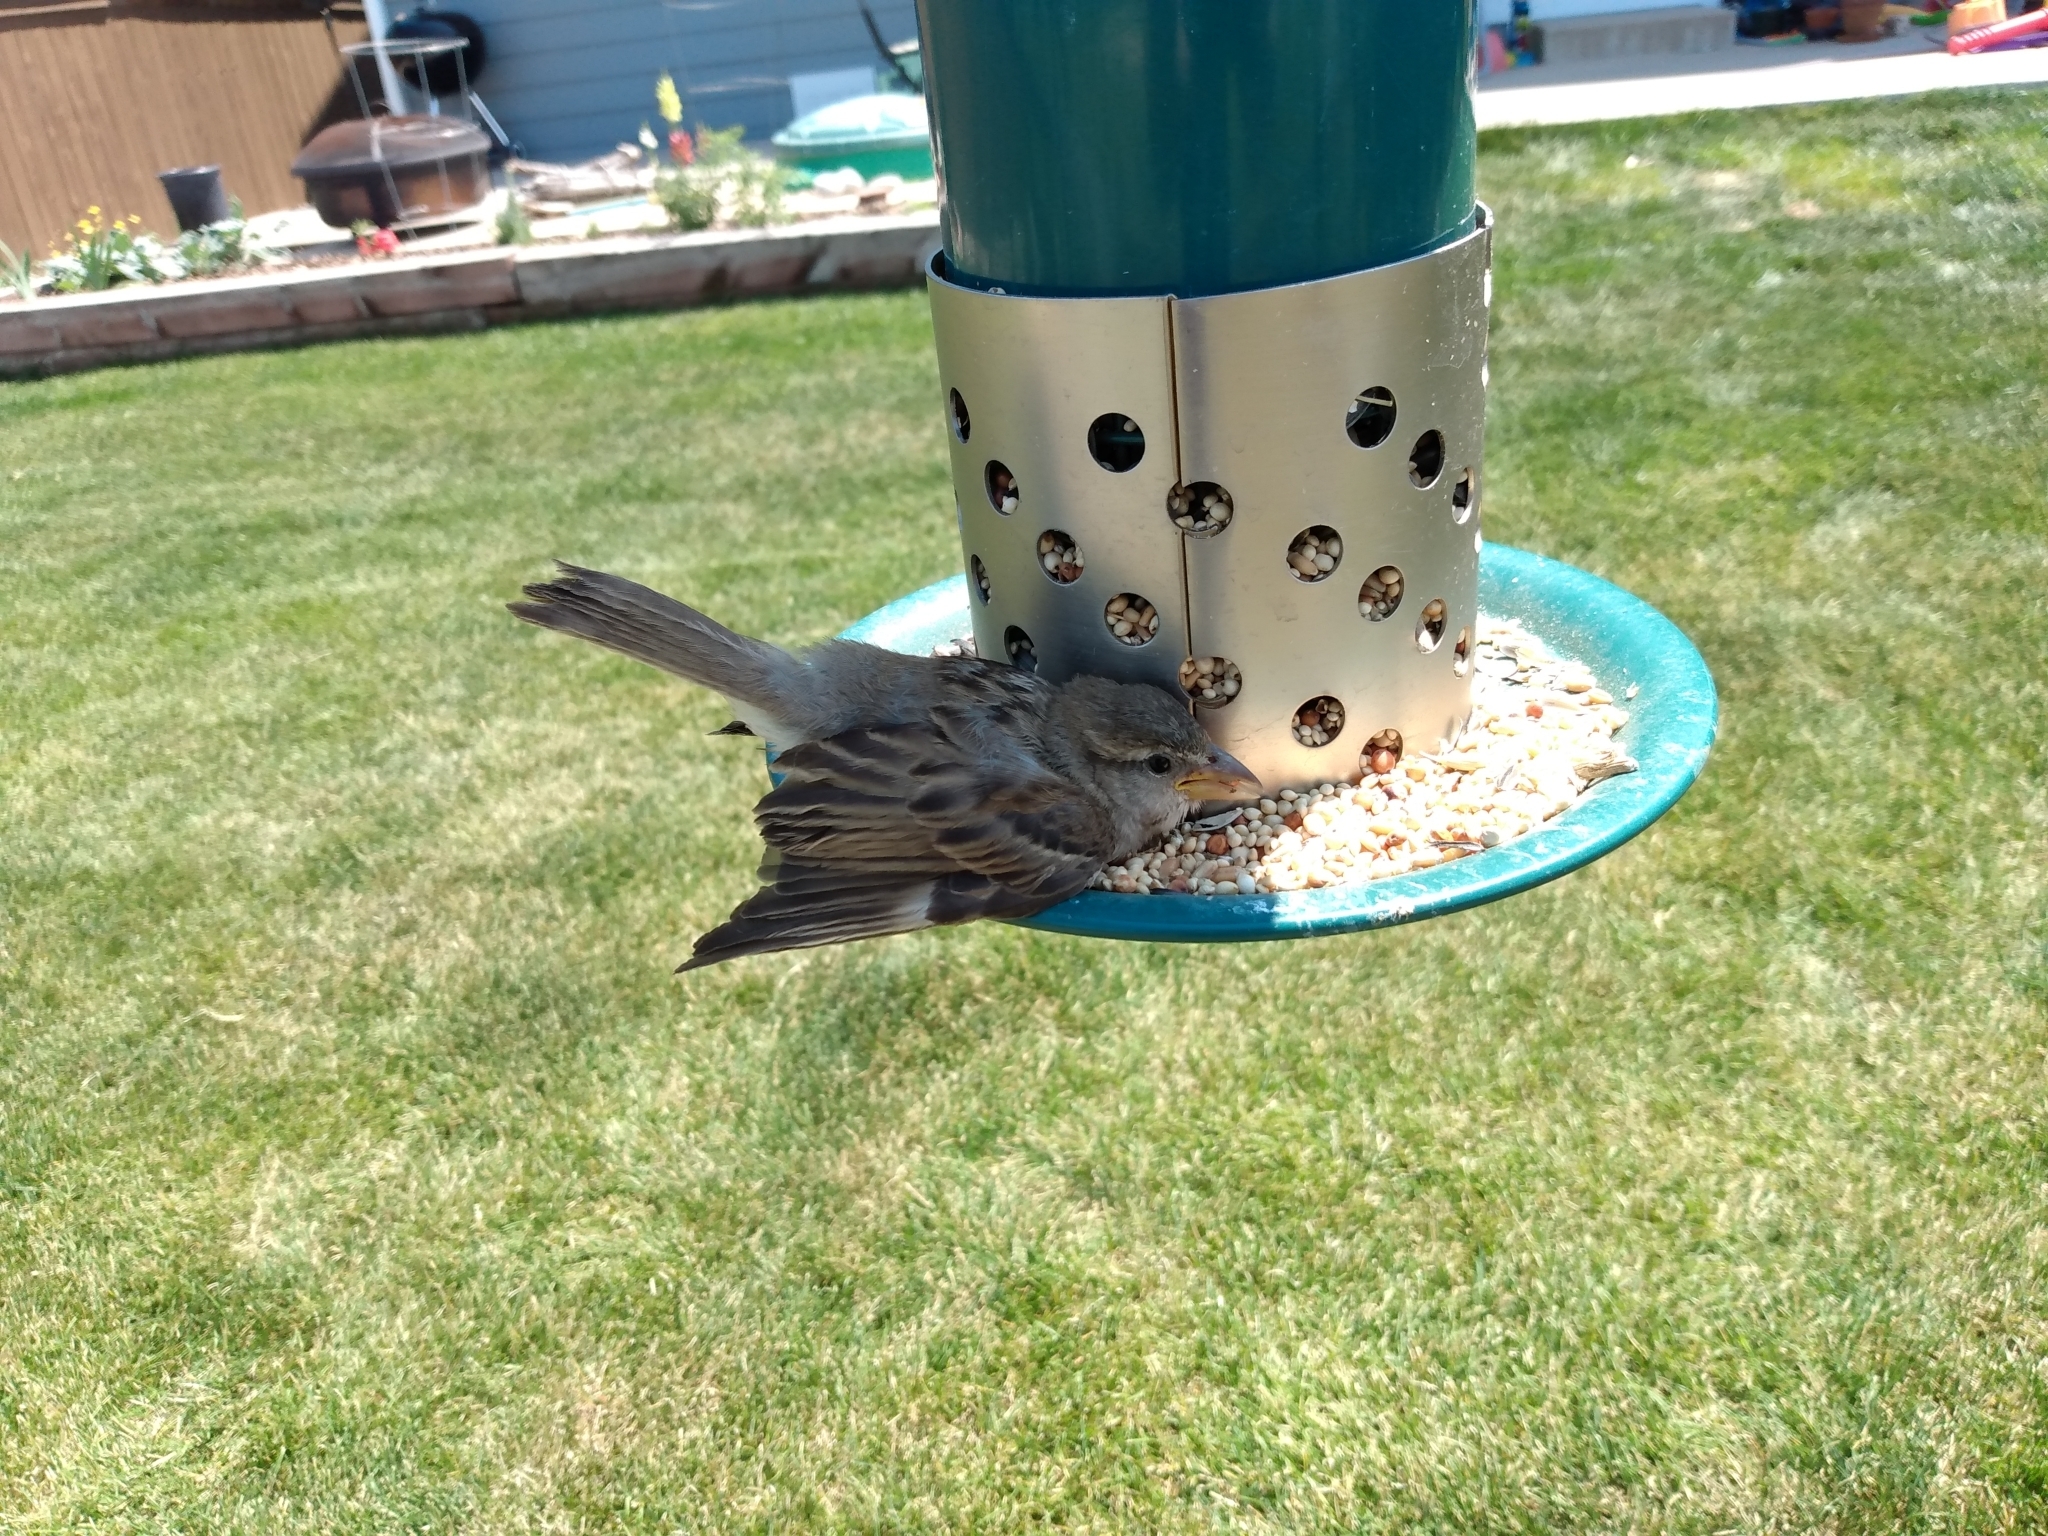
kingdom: Animalia
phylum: Chordata
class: Aves
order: Passeriformes
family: Passeridae
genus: Passer
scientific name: Passer domesticus
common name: House sparrow
